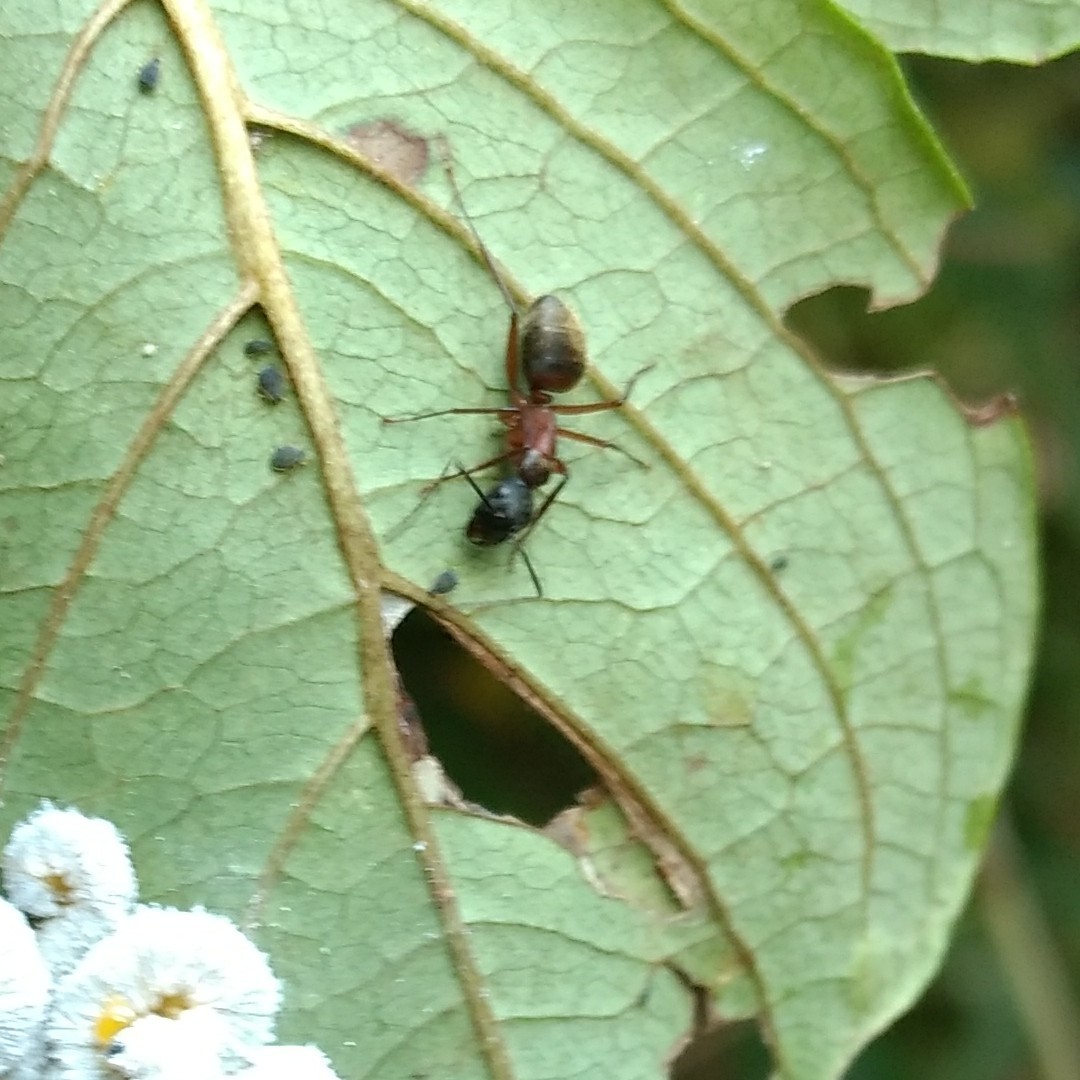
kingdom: Animalia
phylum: Arthropoda
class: Insecta
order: Hymenoptera
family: Formicidae
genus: Camponotus
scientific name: Camponotus chromaiodes
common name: Red carpenter ant
